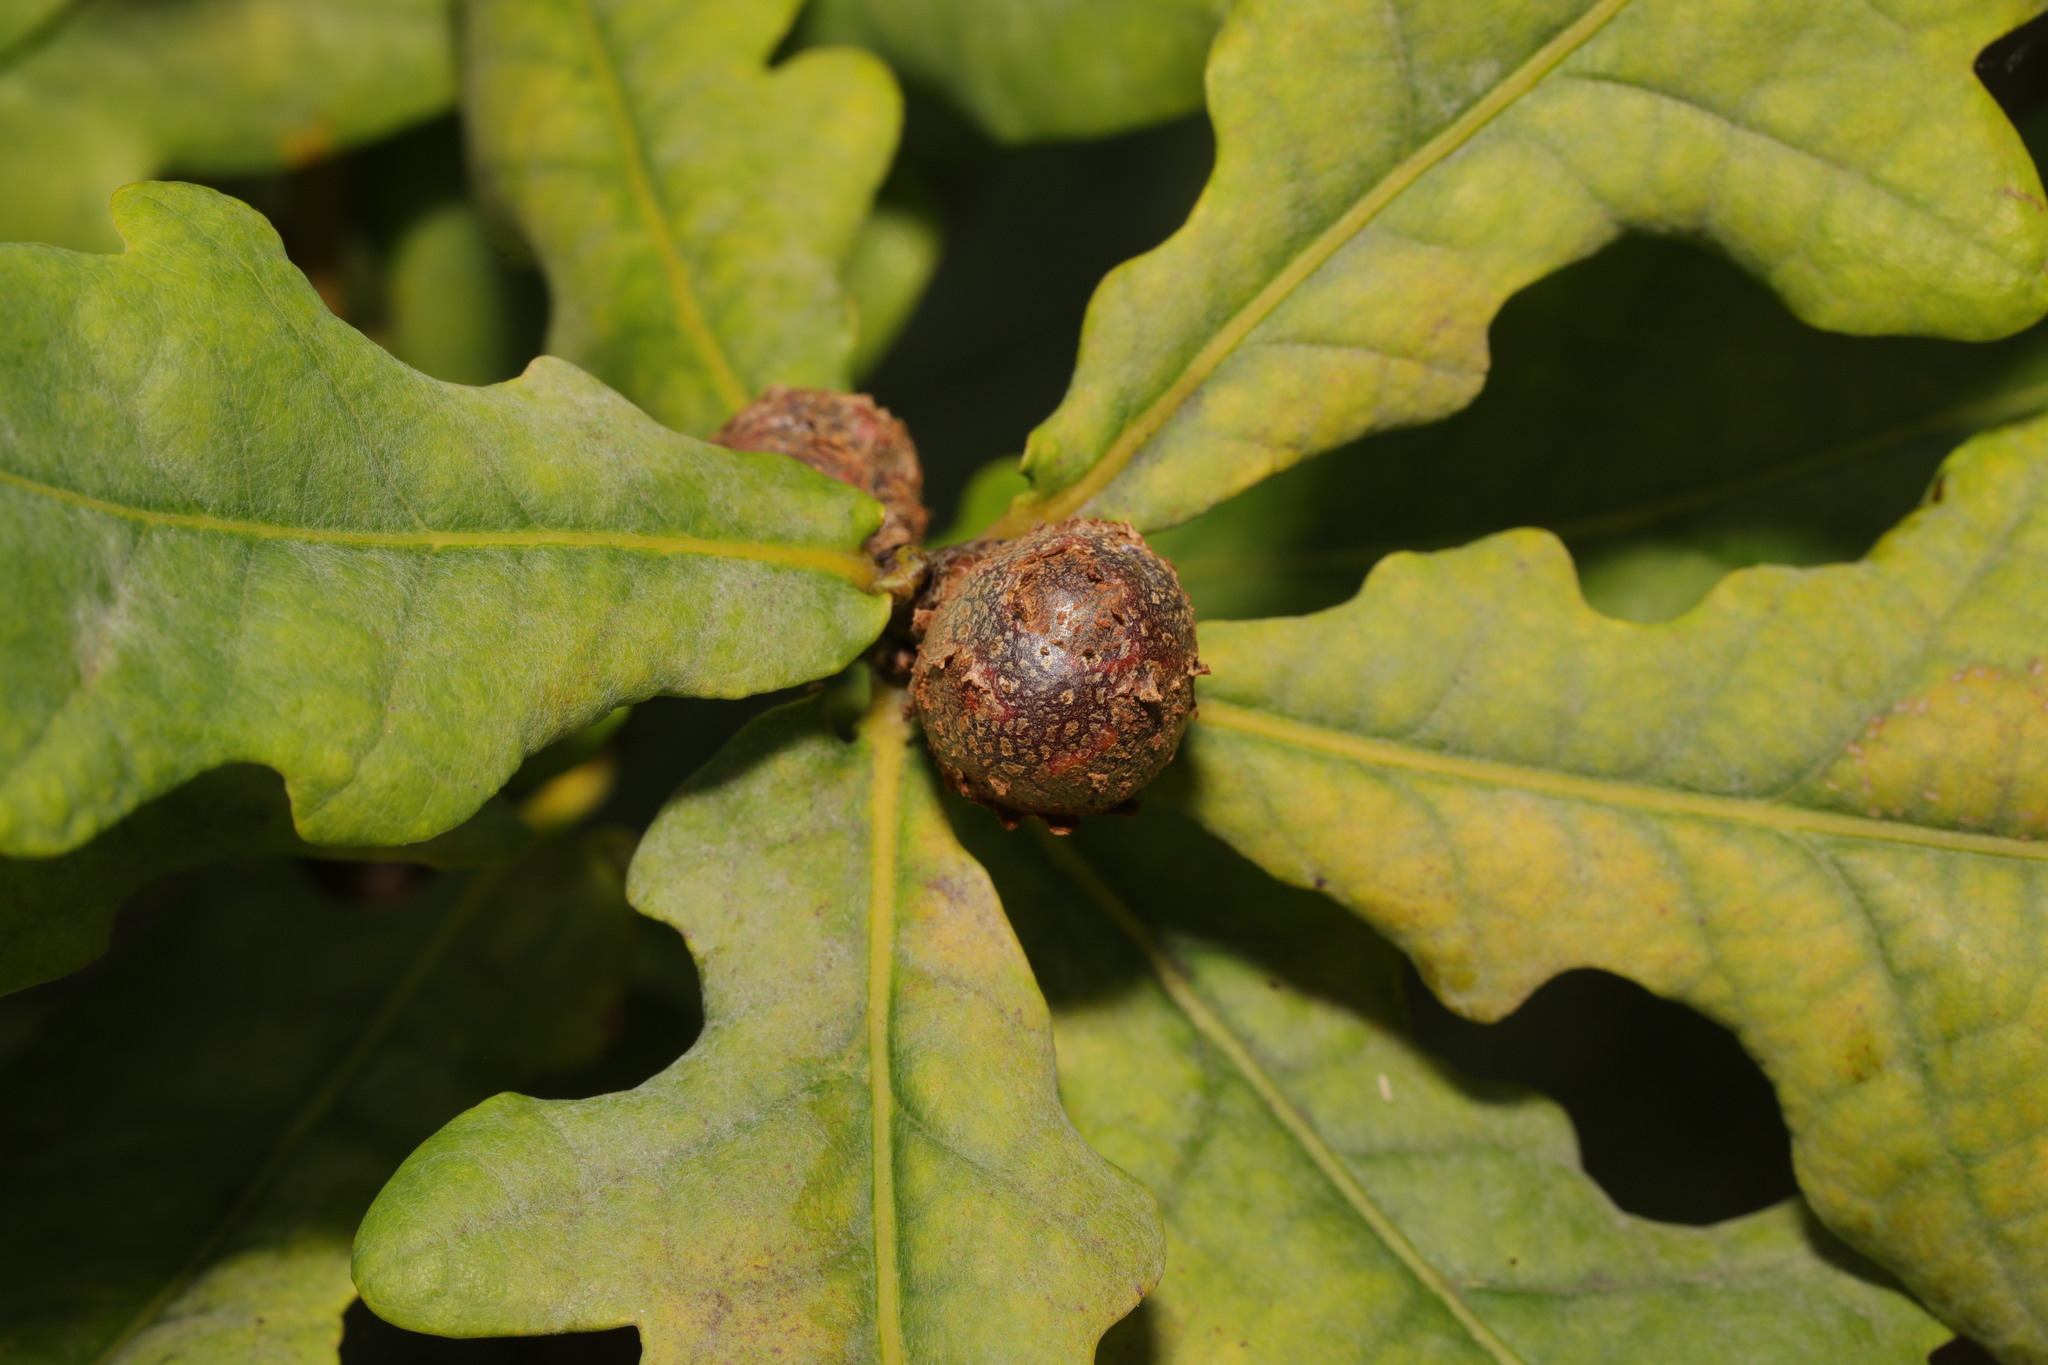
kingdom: Animalia
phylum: Arthropoda
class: Insecta
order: Hymenoptera
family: Cynipidae
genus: Andricus
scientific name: Andricus lignicolus
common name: Cola-nut gall
